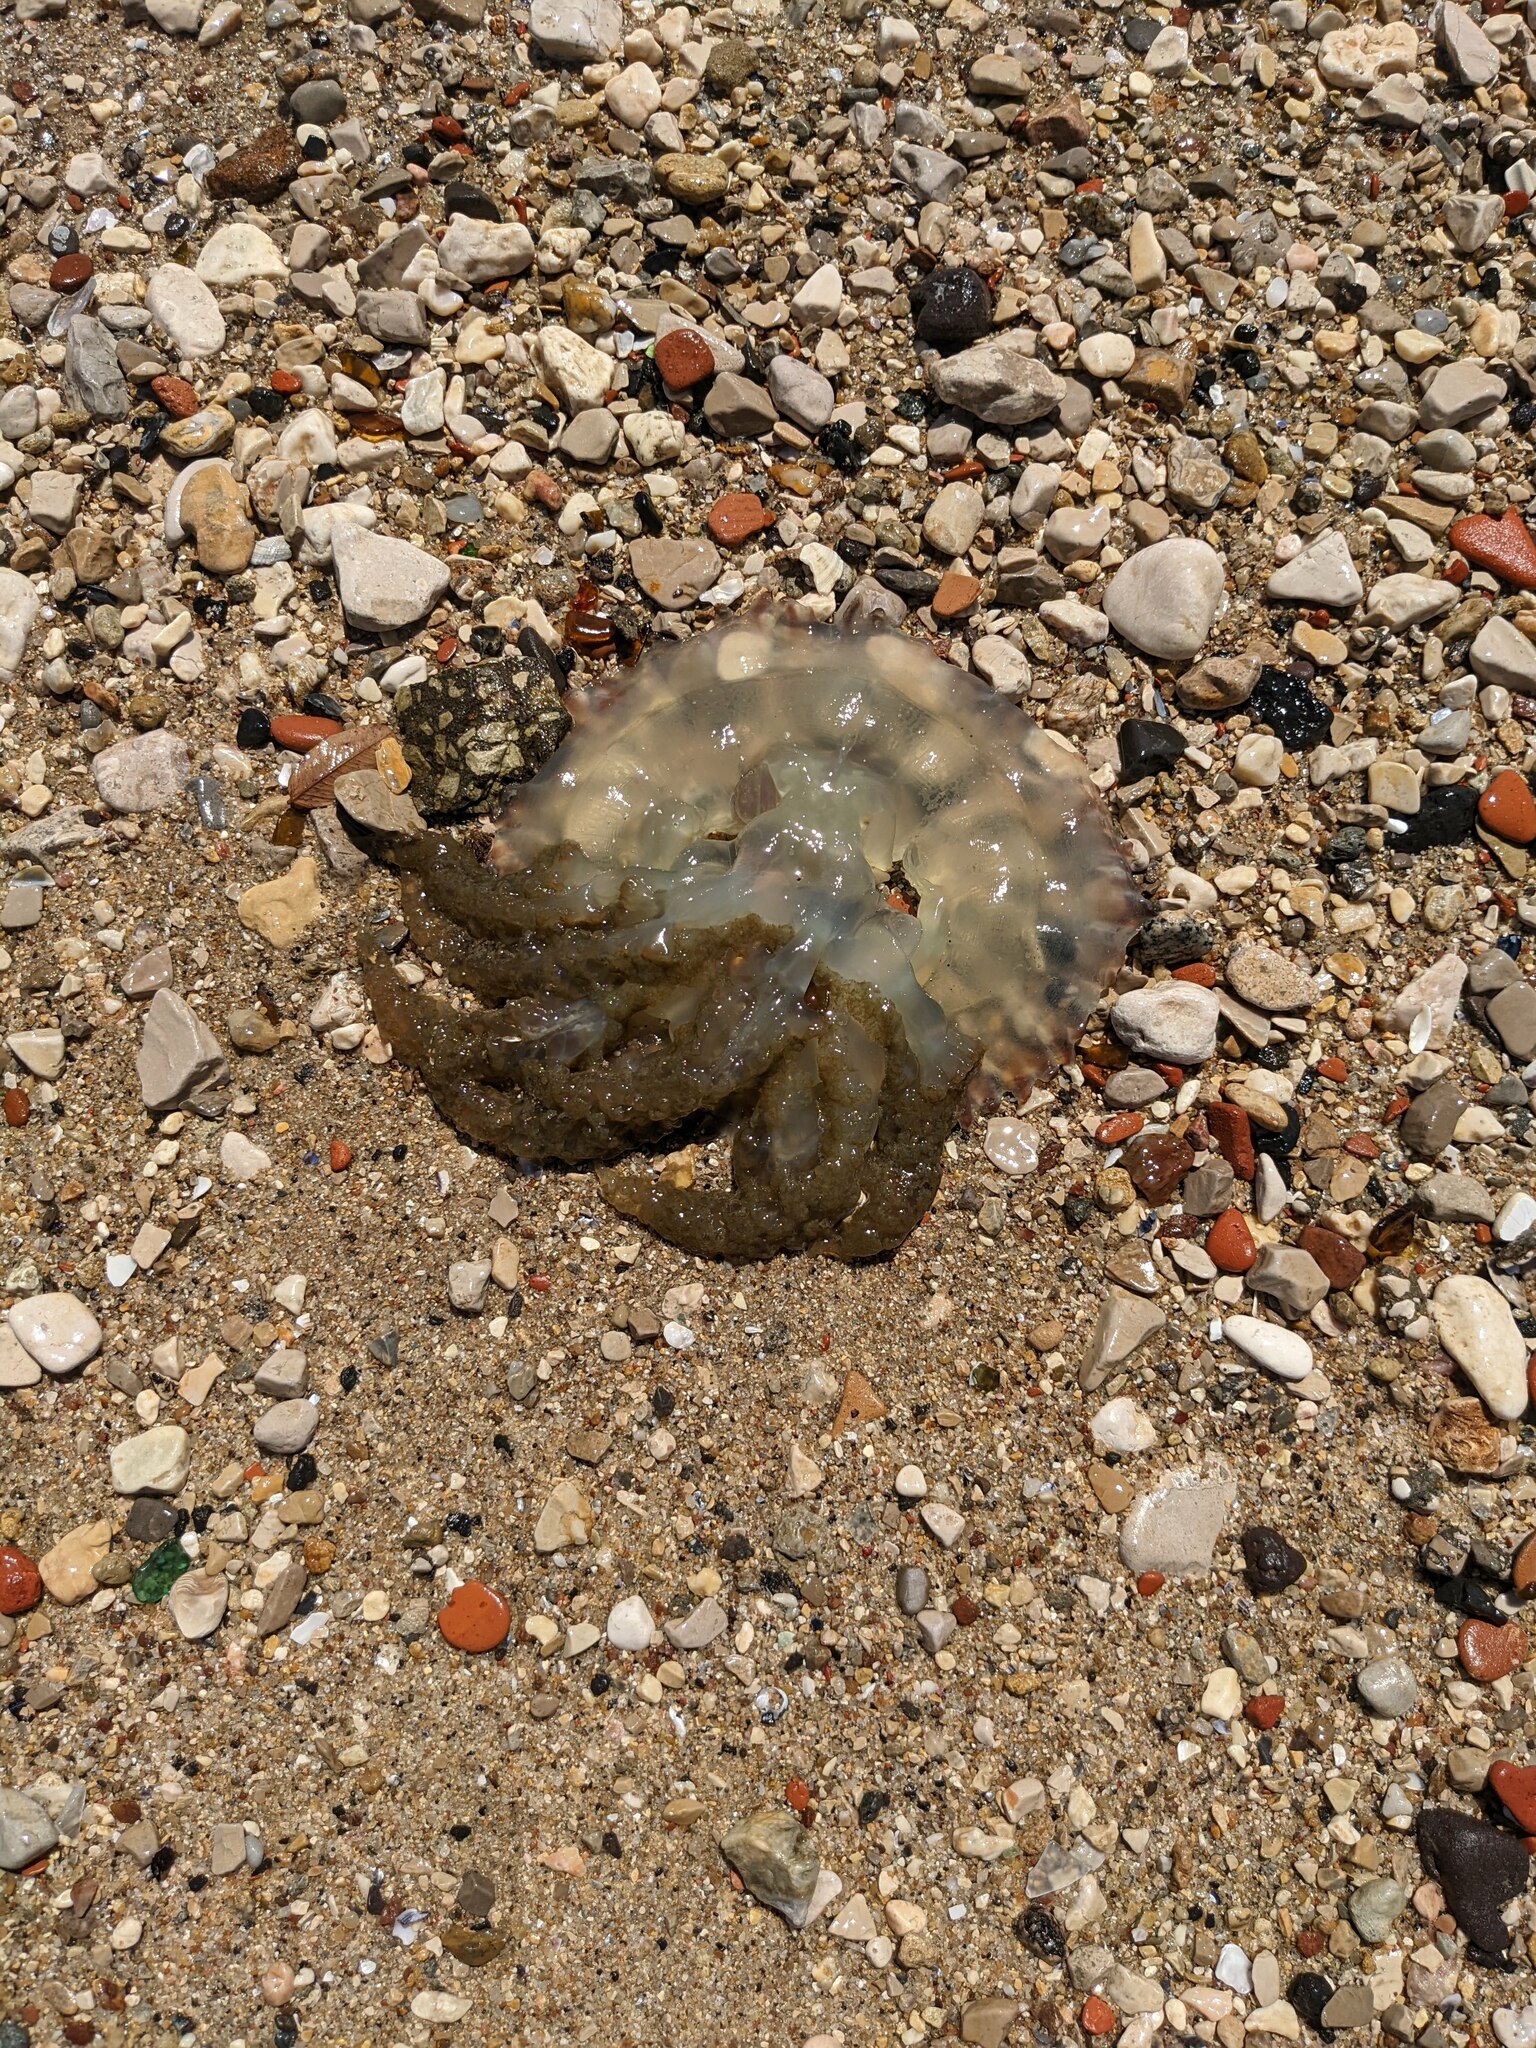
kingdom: Animalia
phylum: Cnidaria
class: Scyphozoa
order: Rhizostomeae
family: Catostylidae
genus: Catostylus
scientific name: Catostylus tagi
